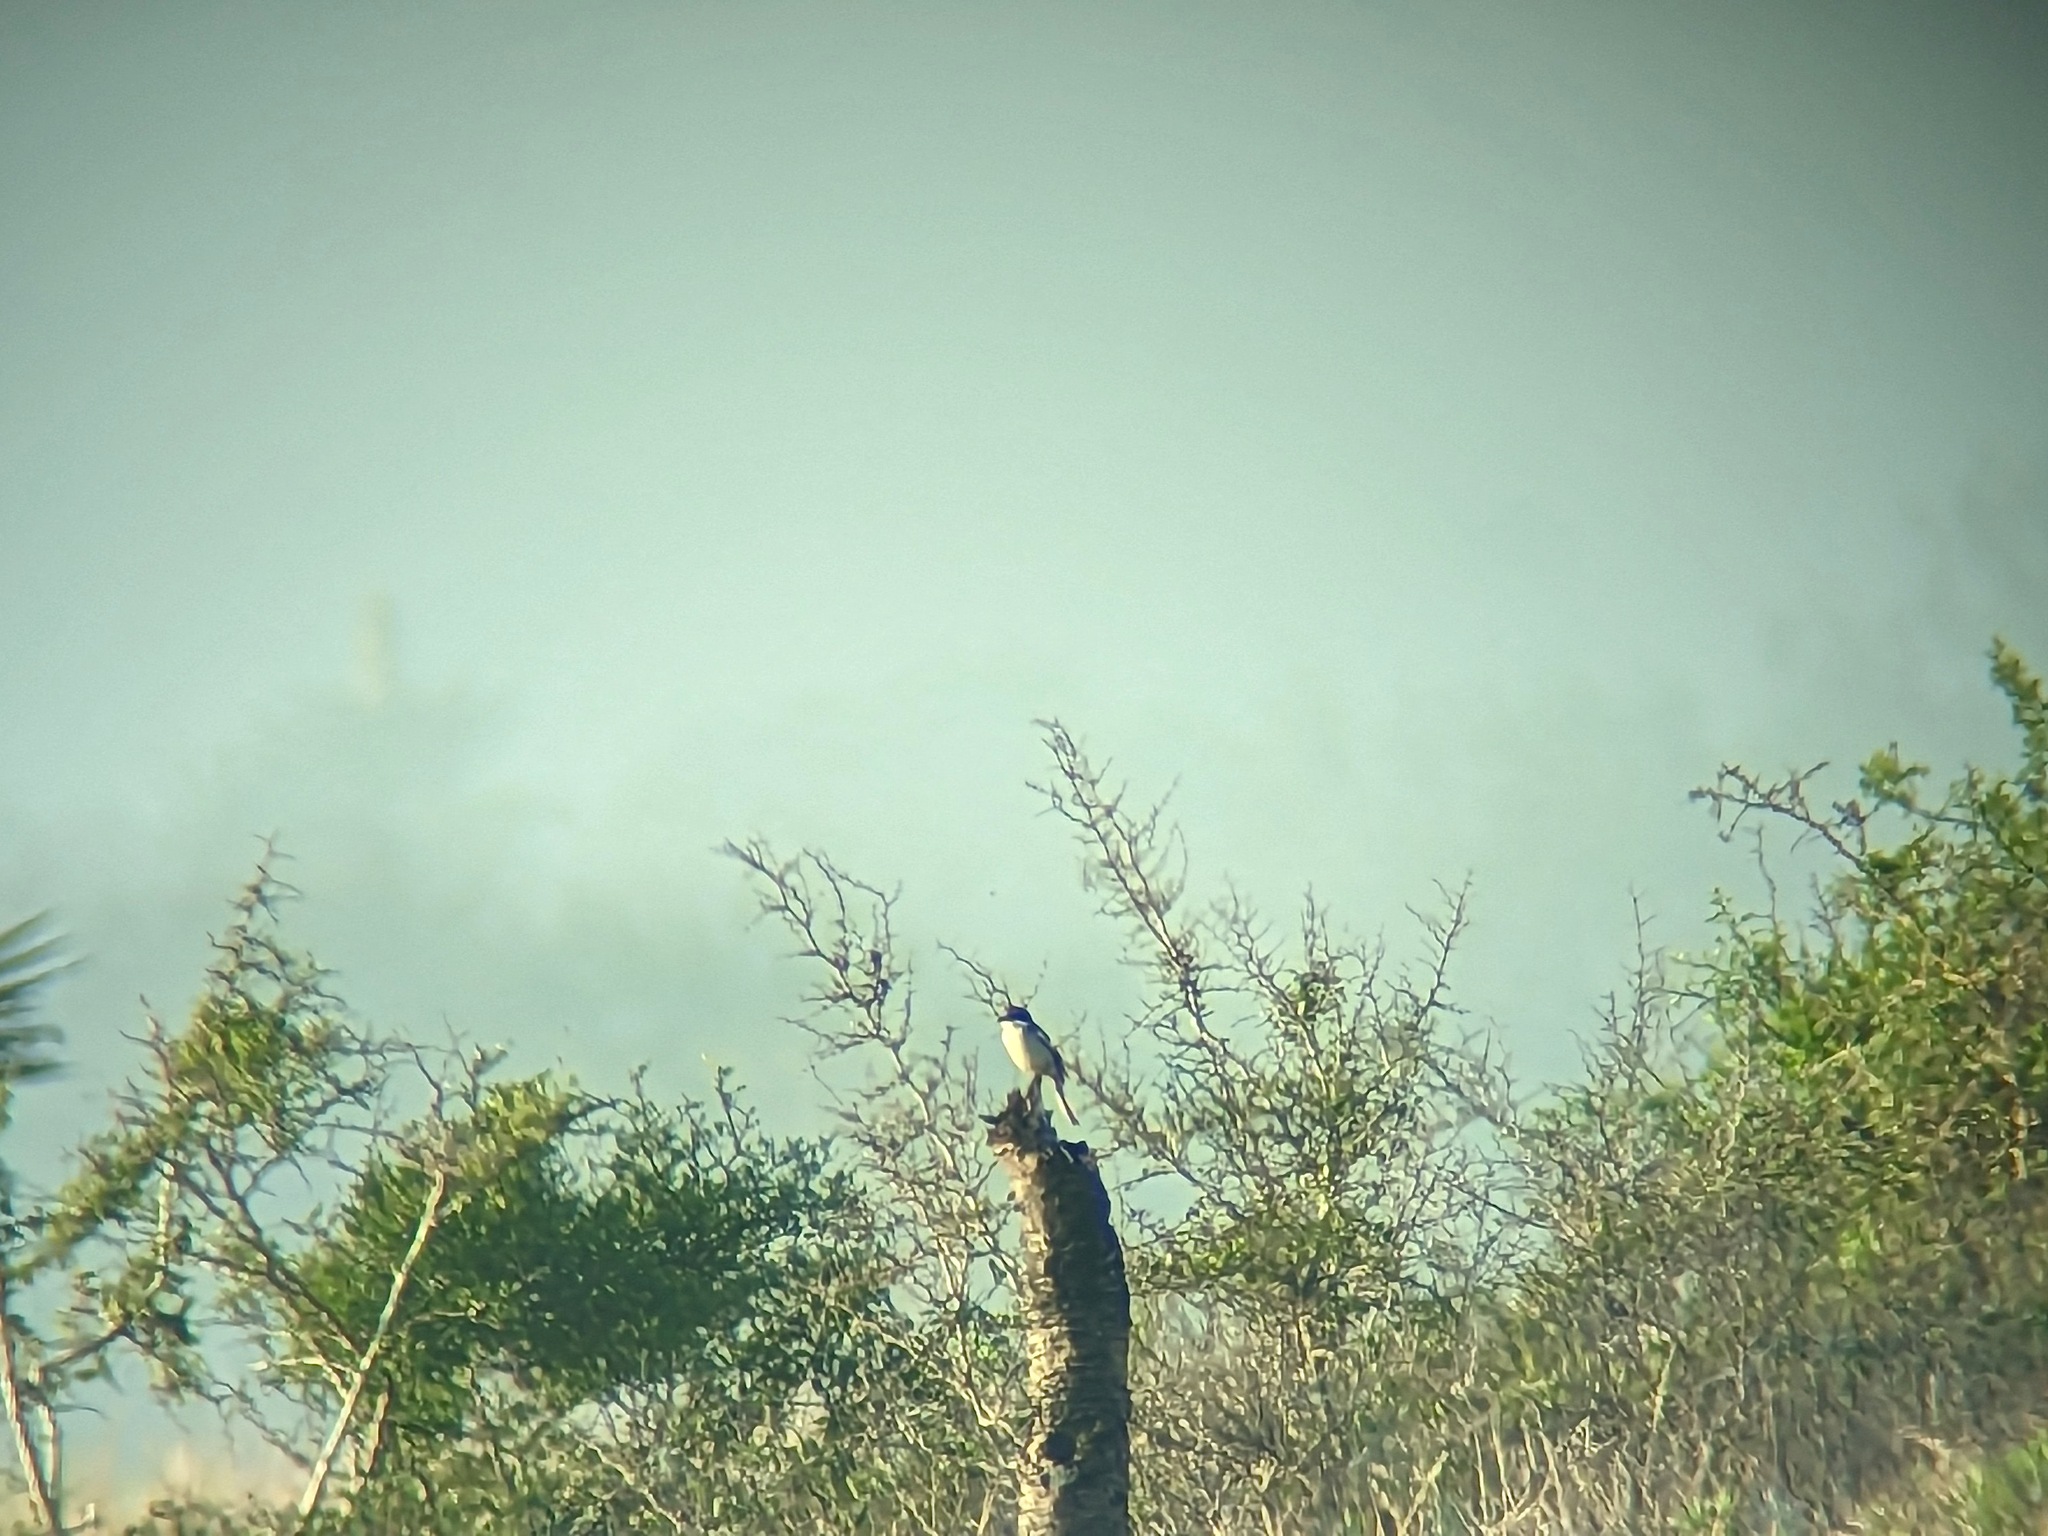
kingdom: Animalia
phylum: Chordata
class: Aves
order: Passeriformes
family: Laniidae
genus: Lanius
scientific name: Lanius ludovicianus
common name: Loggerhead shrike
